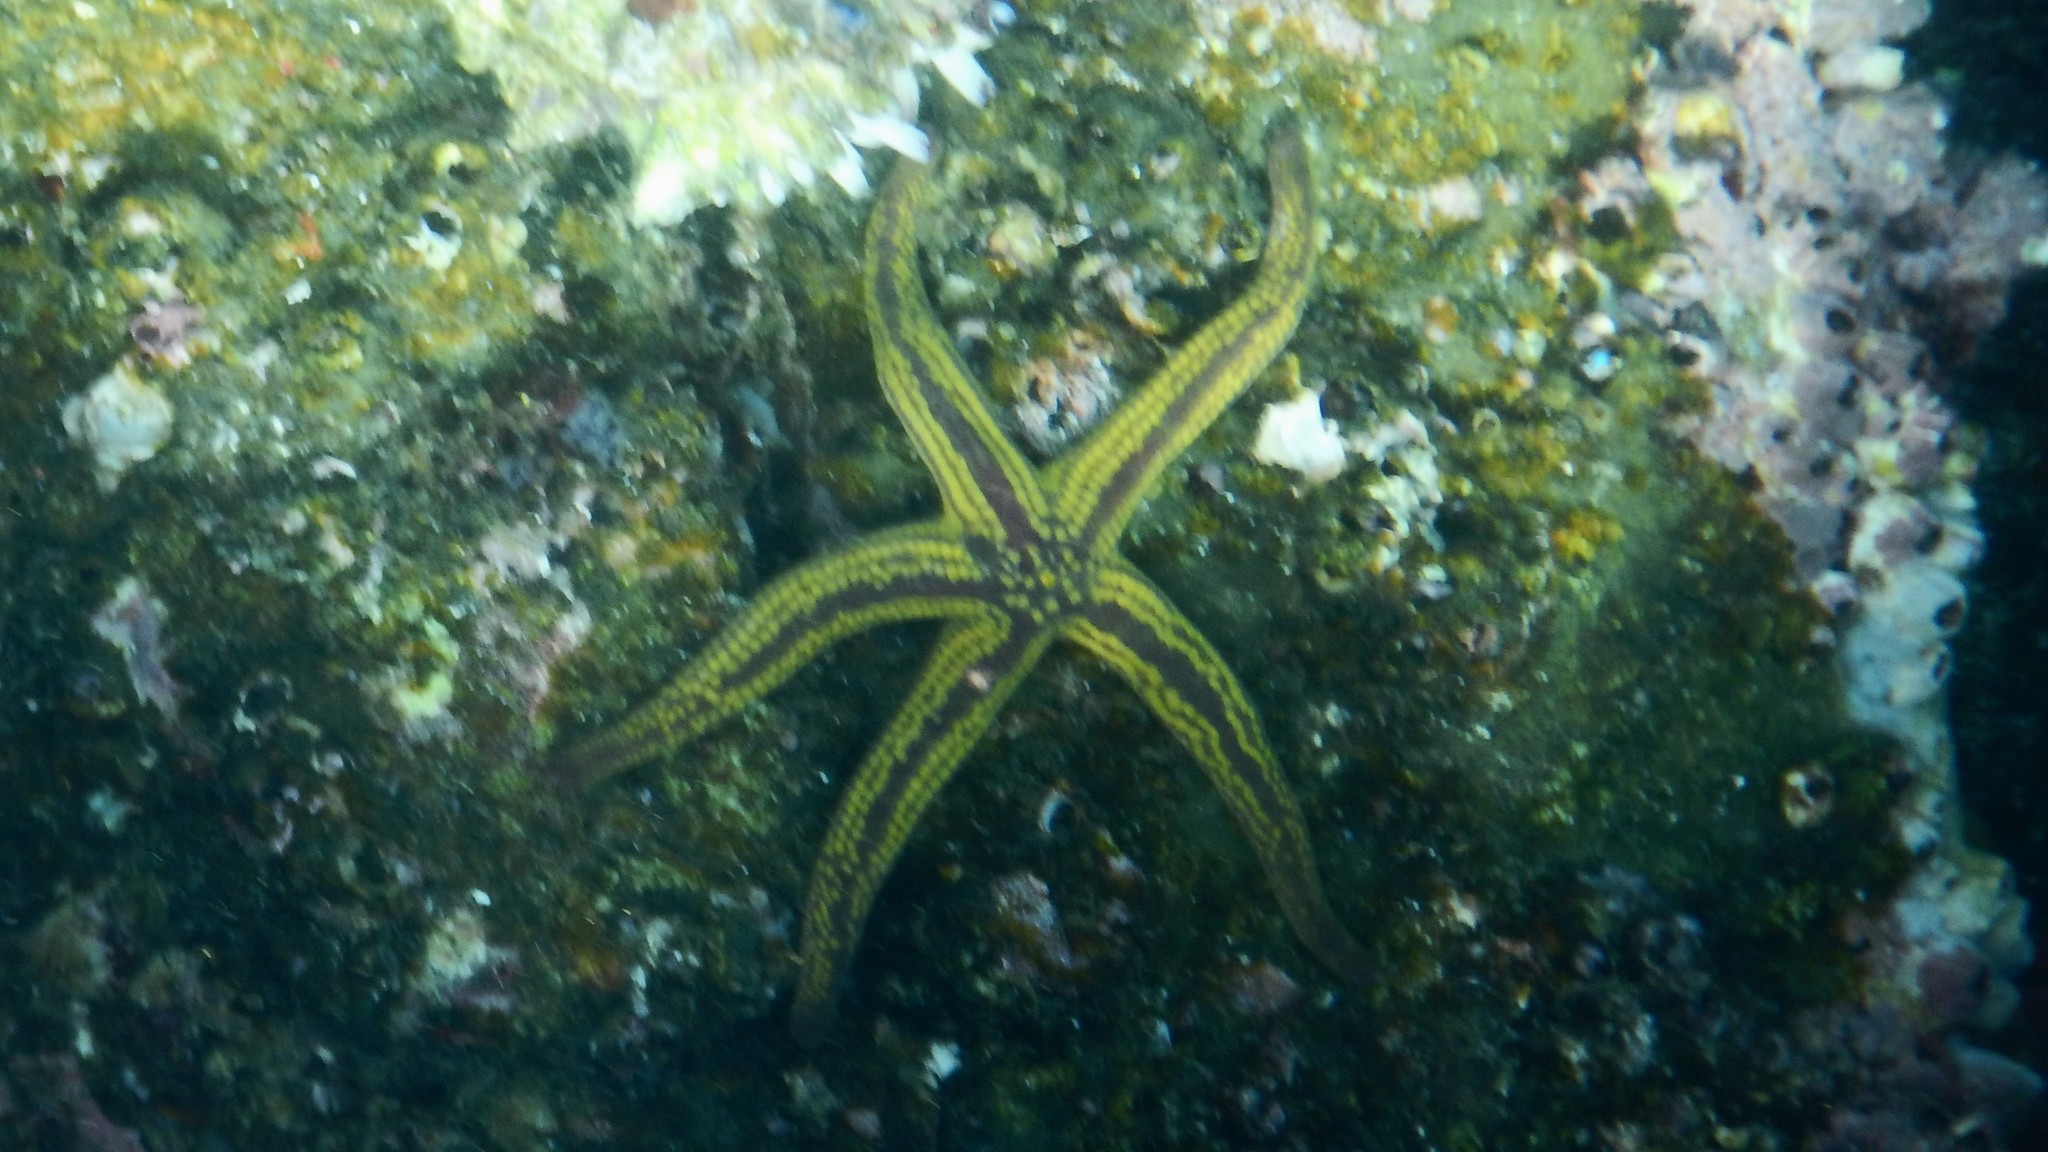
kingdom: Animalia
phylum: Echinodermata
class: Asteroidea
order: Valvatida
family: Ophidiasteridae
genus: Pharia
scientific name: Pharia pyramidata
